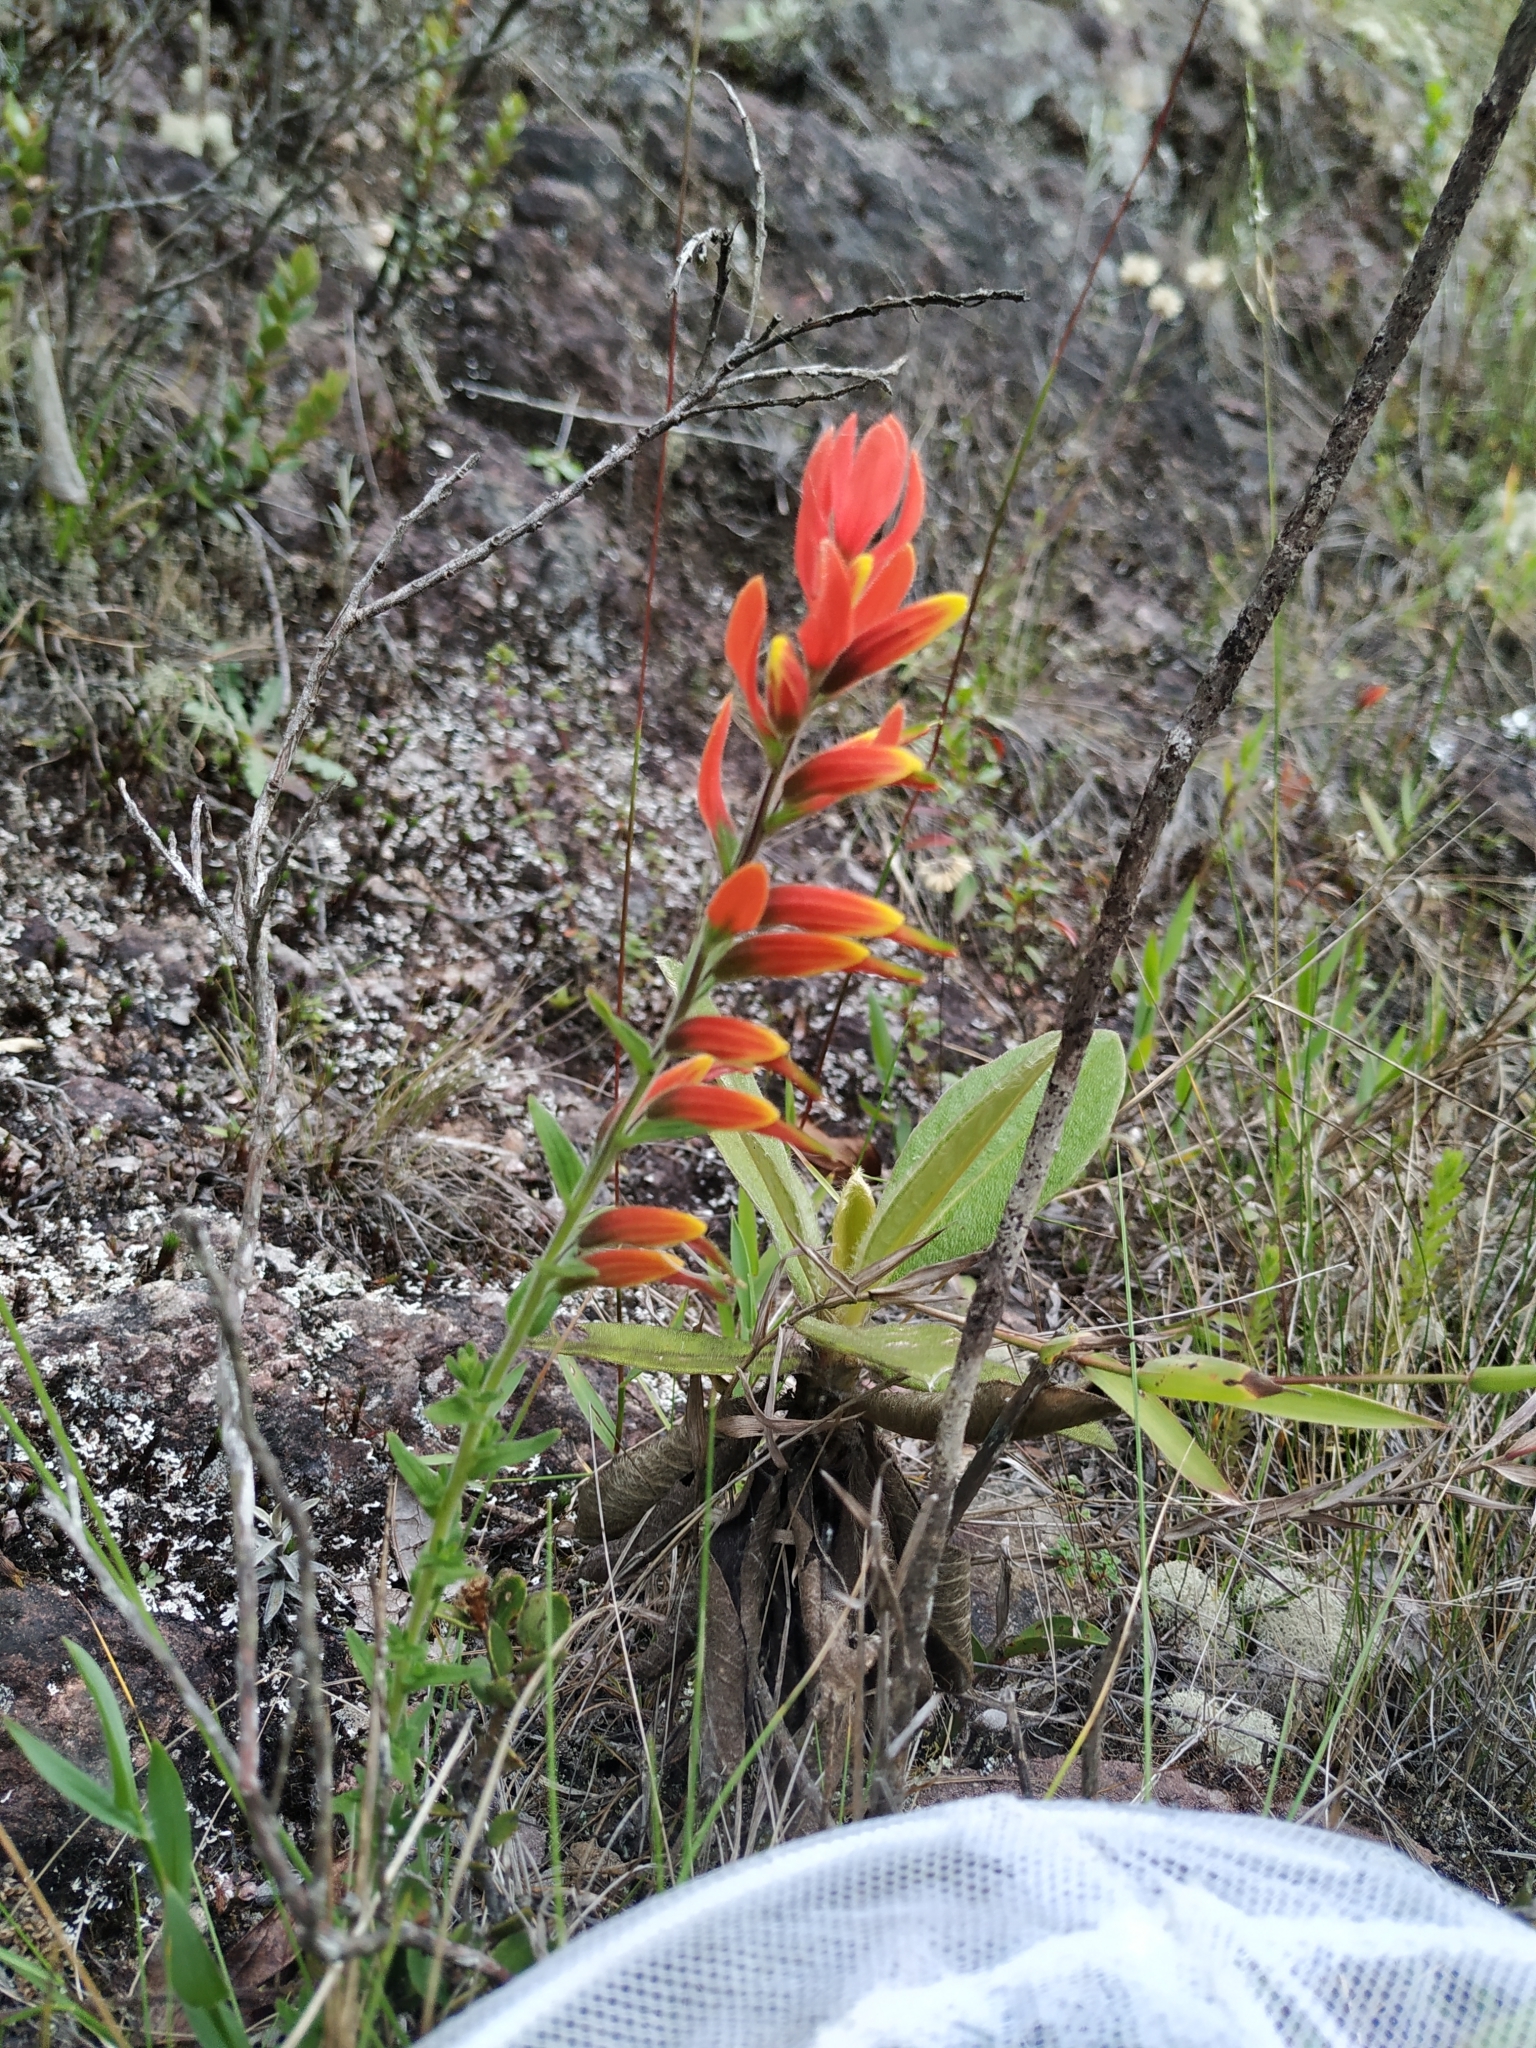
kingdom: Plantae
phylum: Tracheophyta
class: Magnoliopsida
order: Lamiales
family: Orobanchaceae
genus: Castilleja
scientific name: Castilleja integrifolia
